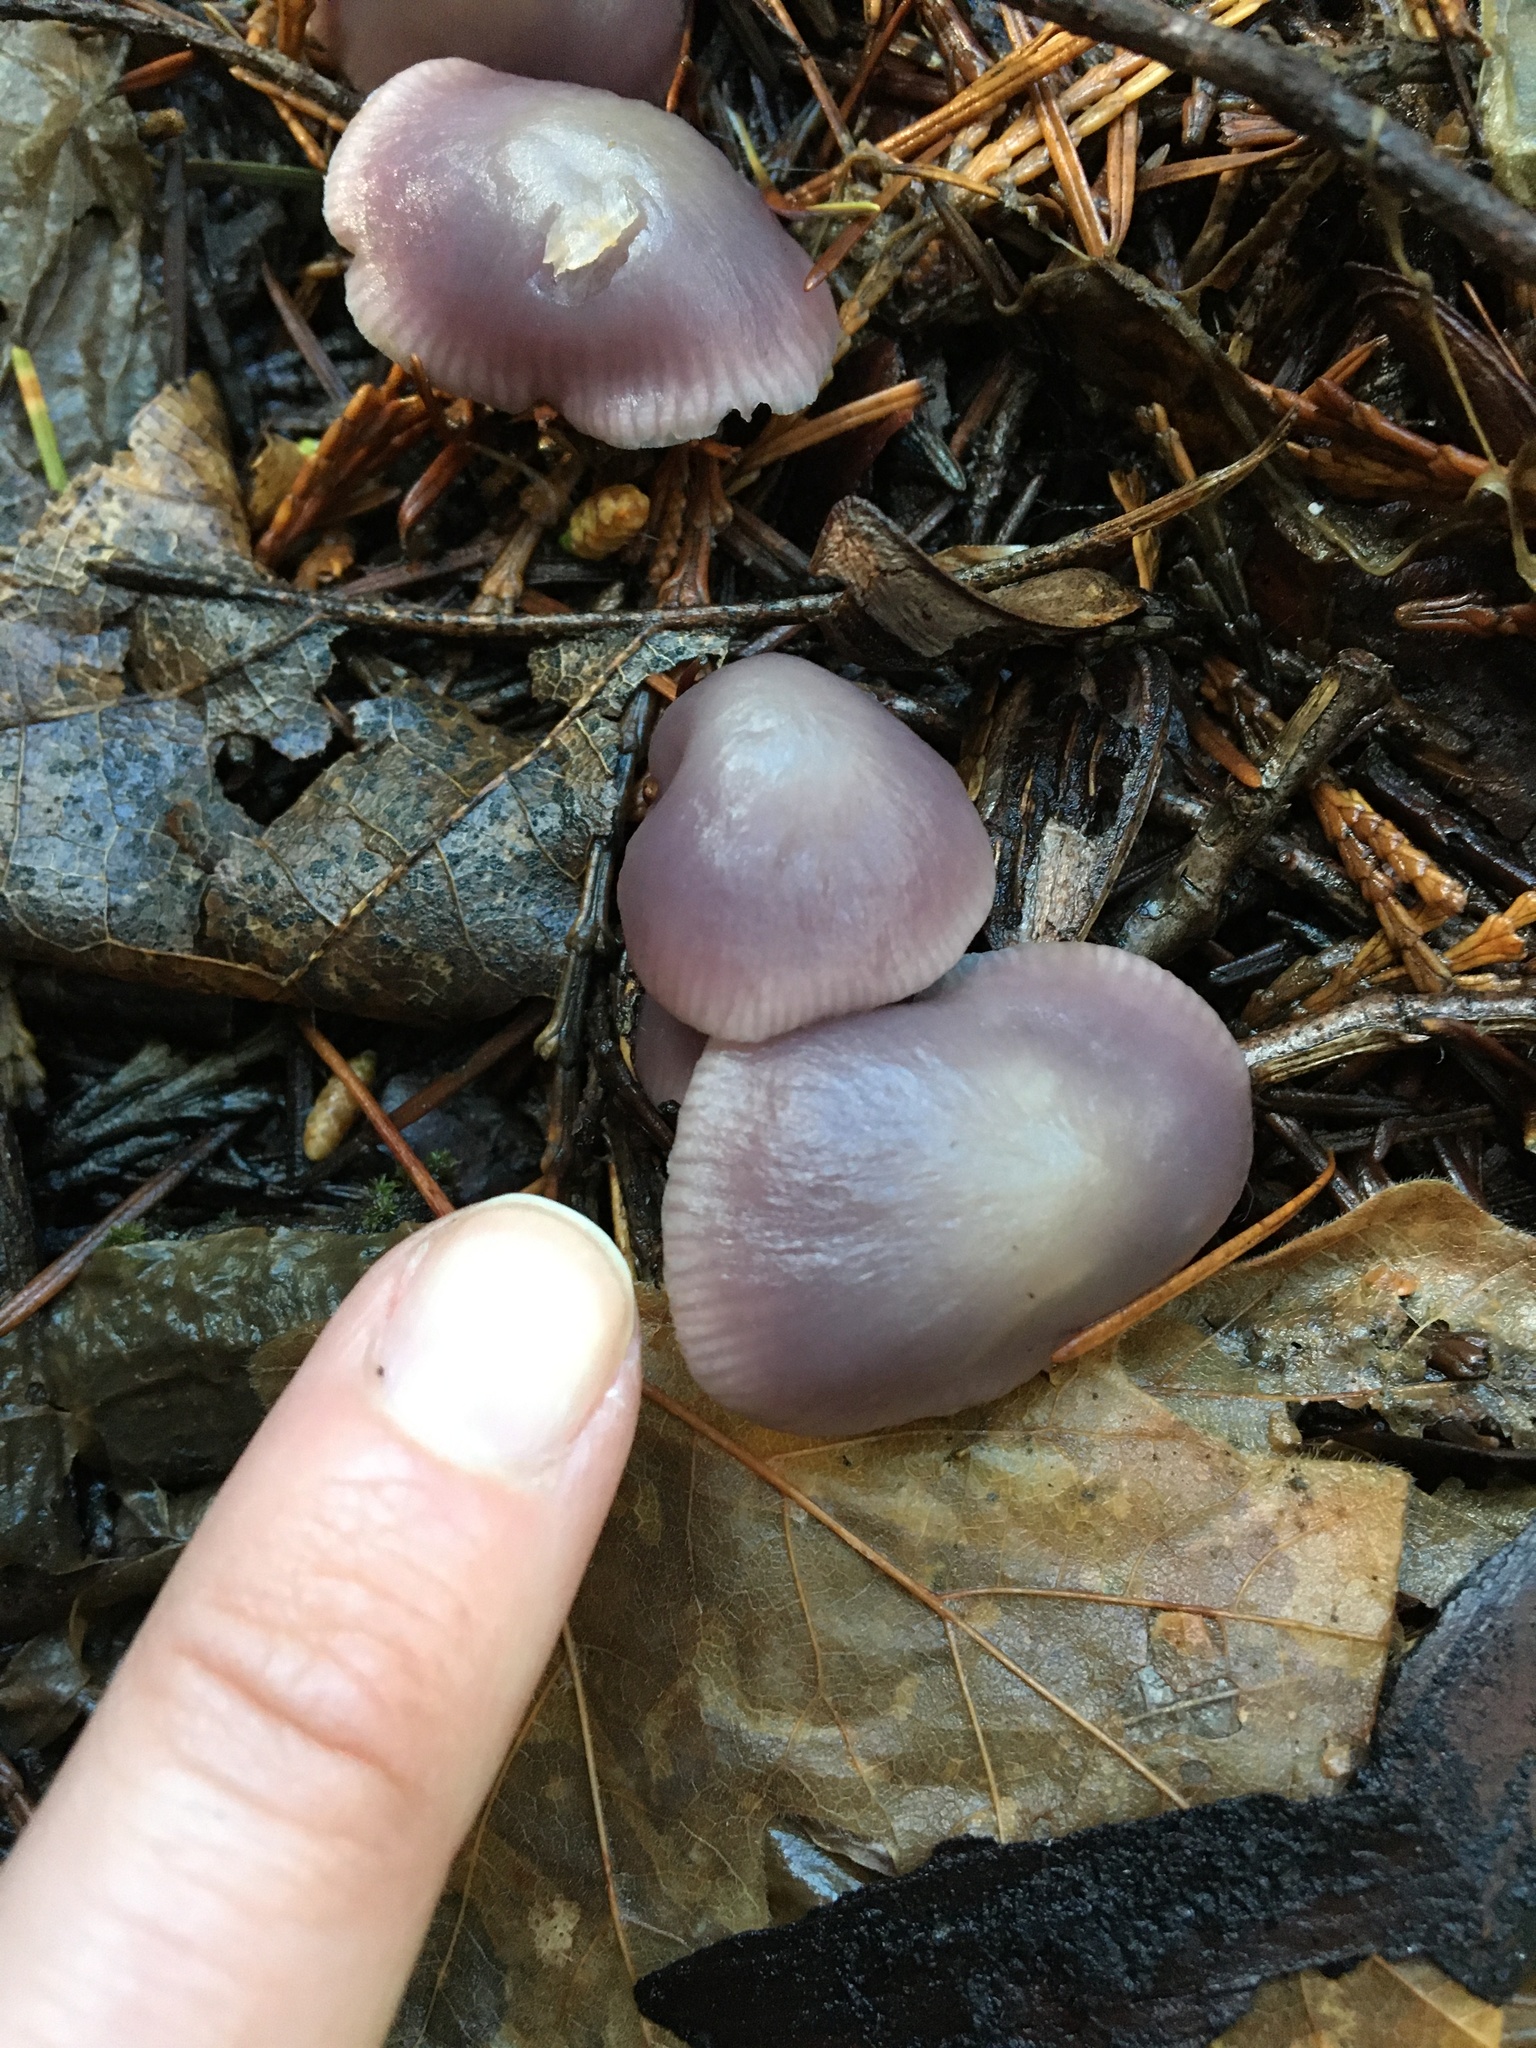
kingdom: Fungi
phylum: Basidiomycota
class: Agaricomycetes
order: Agaricales
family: Mycenaceae
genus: Mycena
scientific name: Mycena pura
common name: Lilac bonnet
